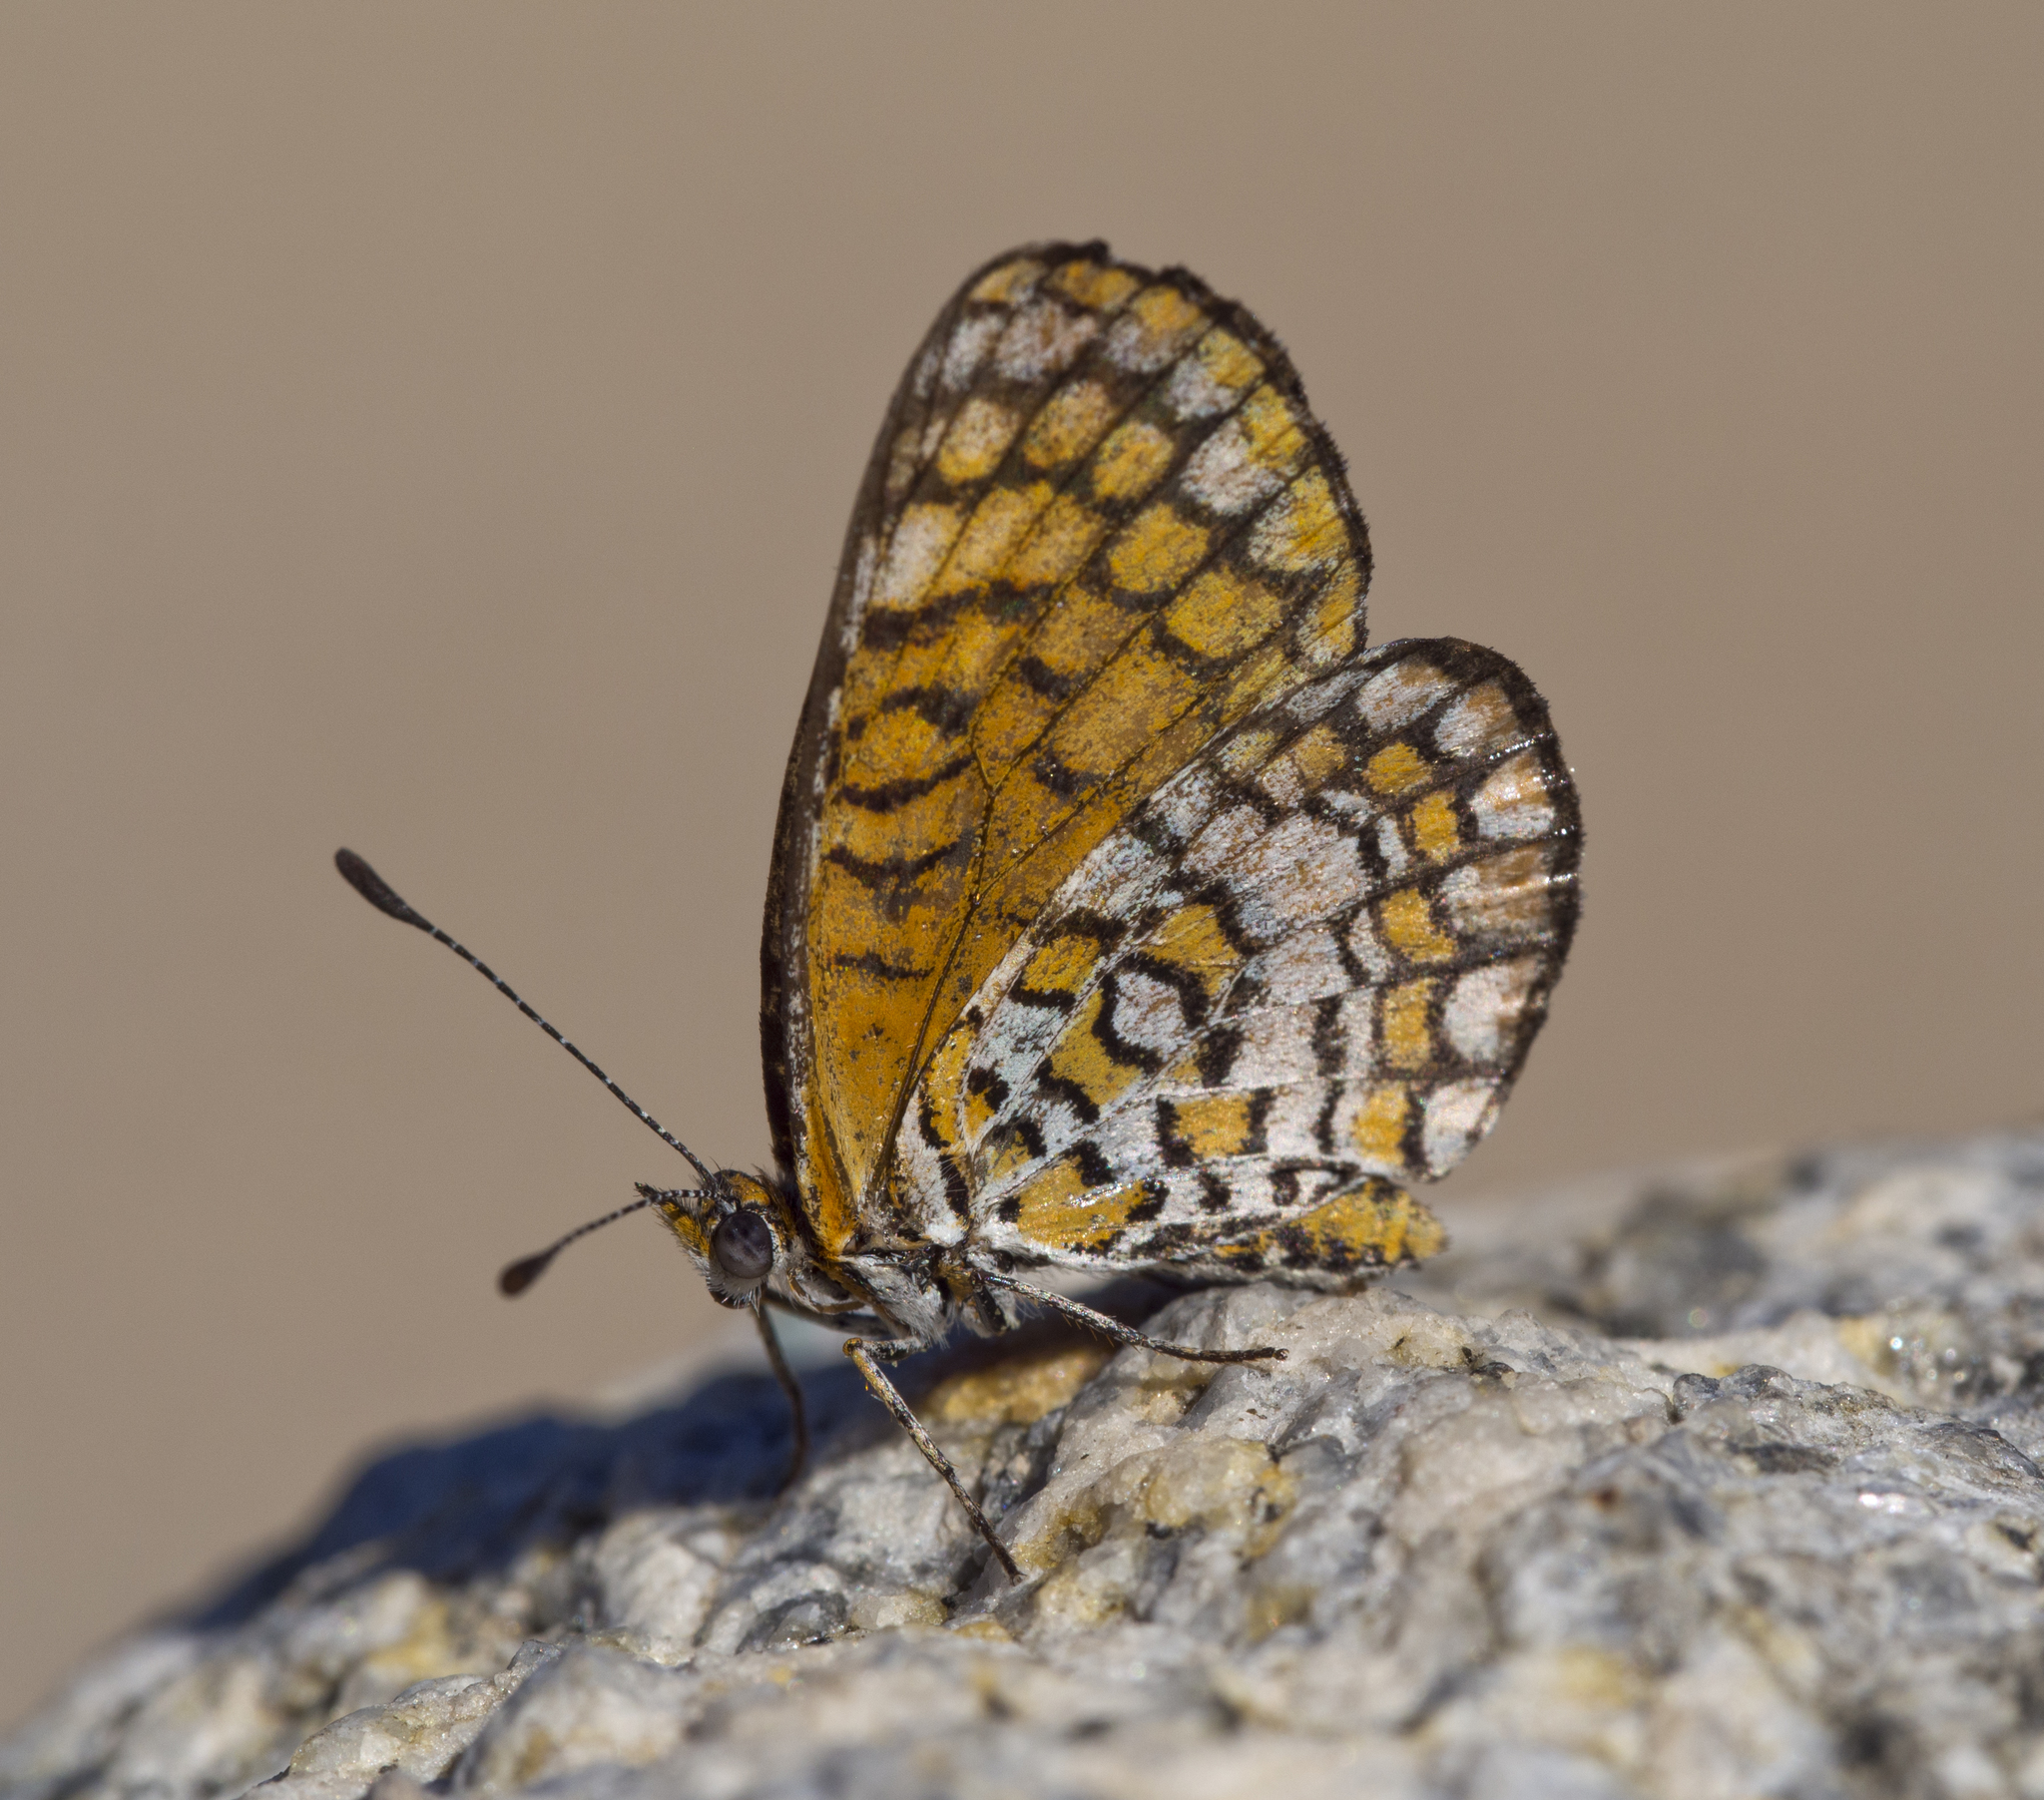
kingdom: Animalia
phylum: Arthropoda
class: Insecta
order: Lepidoptera
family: Nymphalidae
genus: Dymasia
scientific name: Dymasia dymas
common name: Tiny checkerspot
